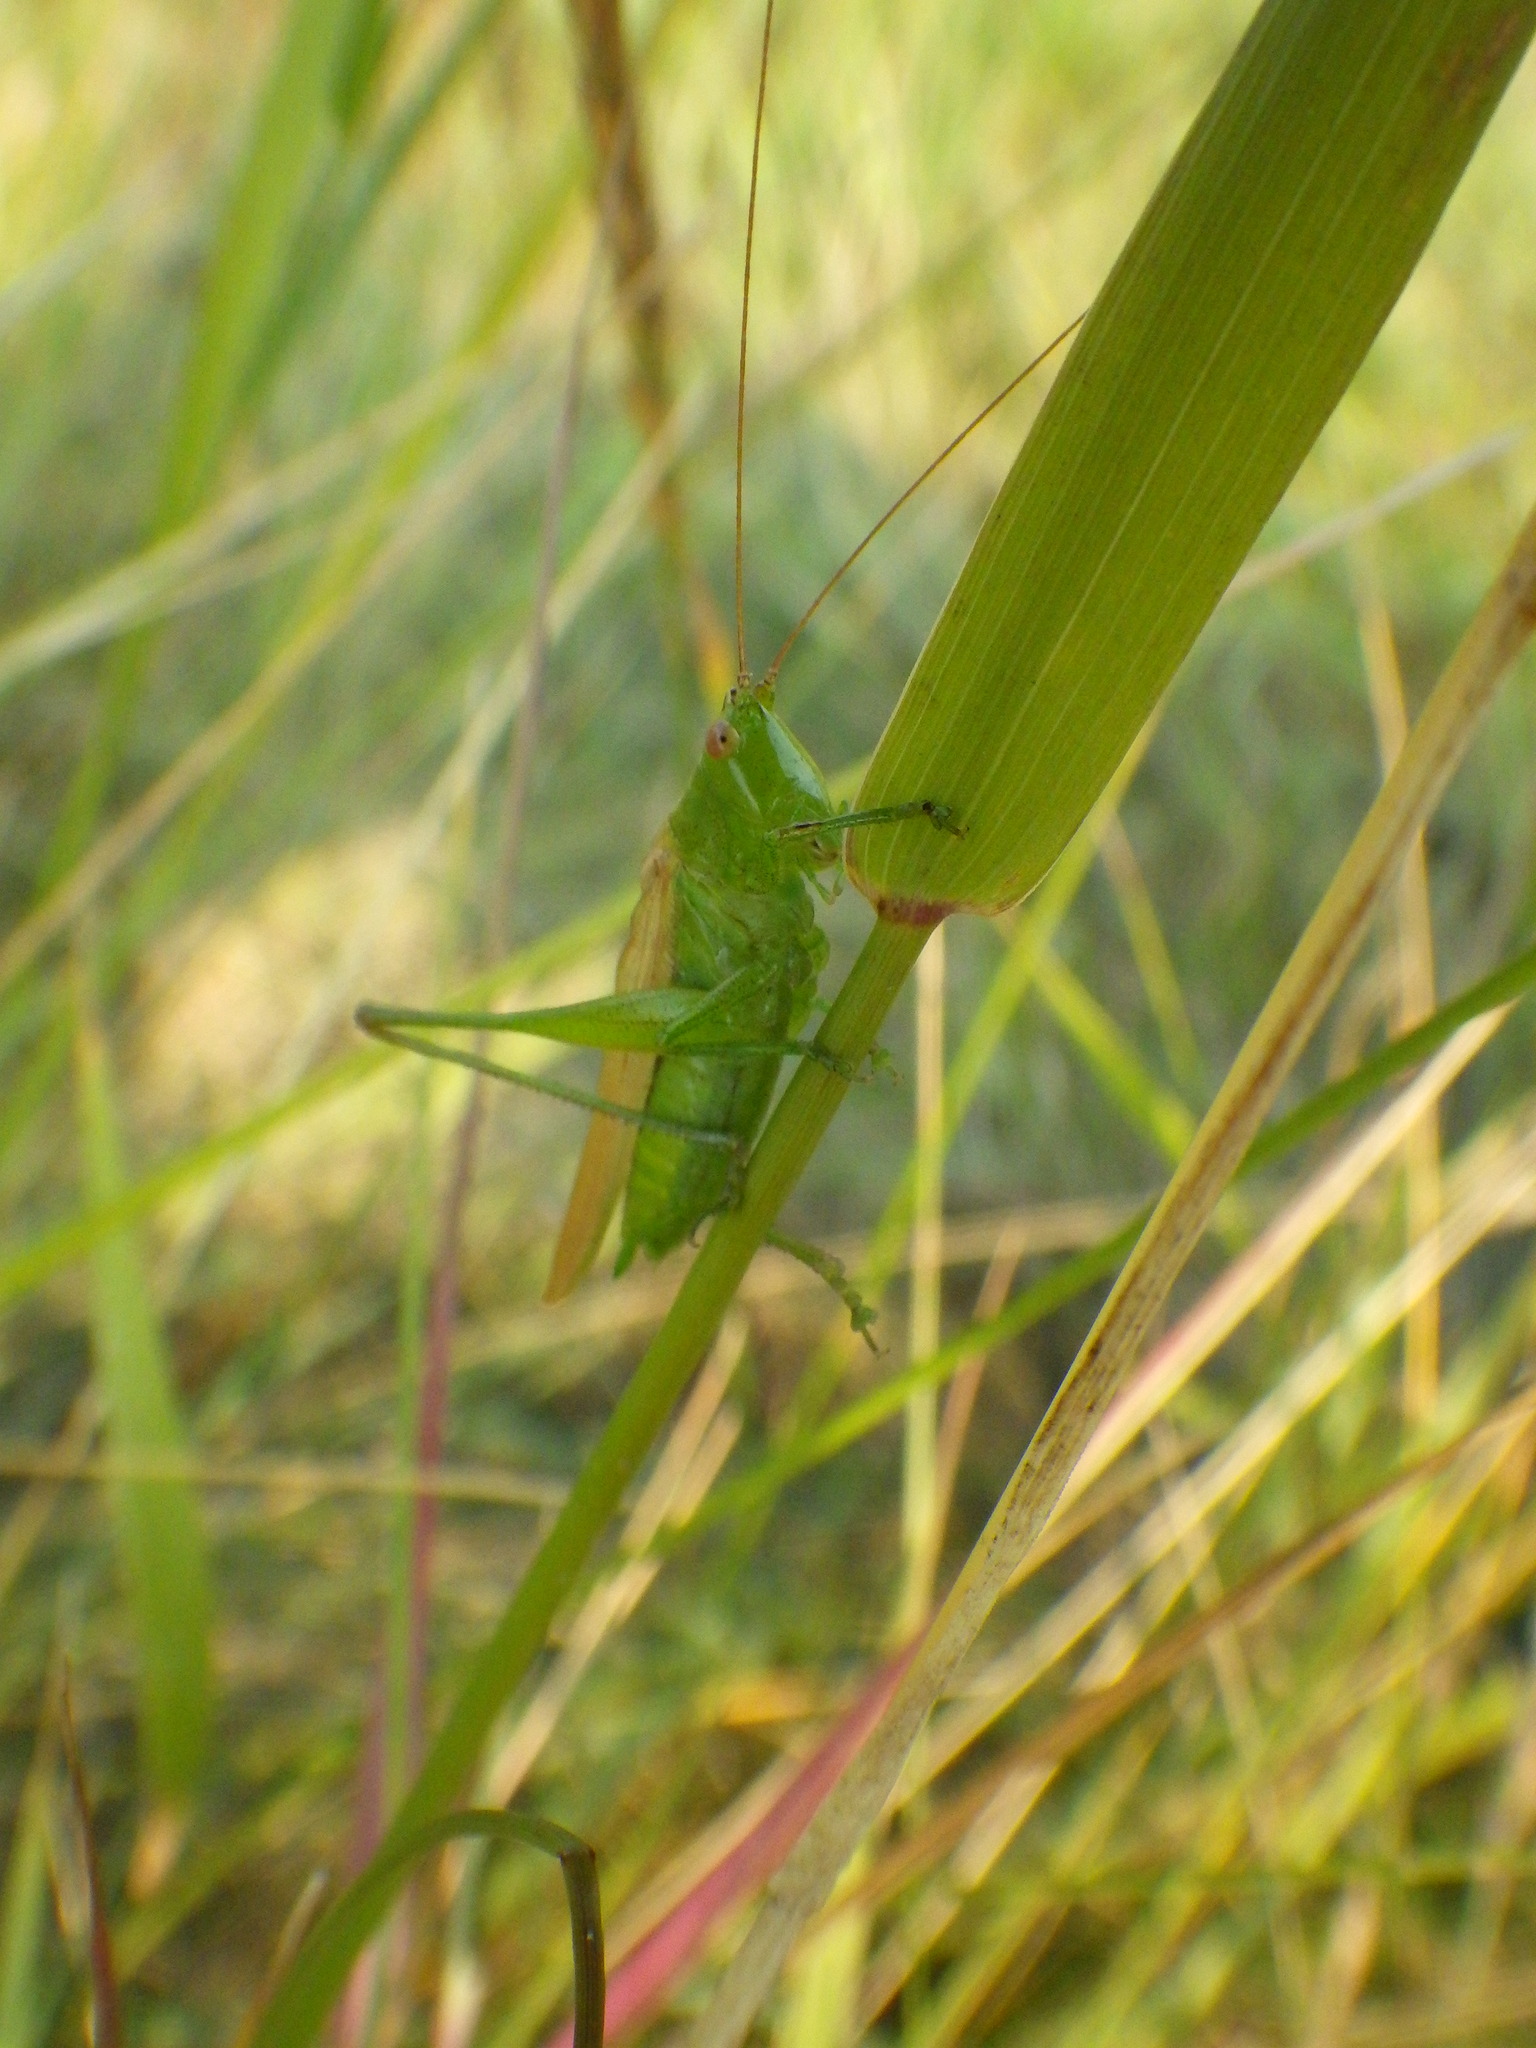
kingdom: Animalia
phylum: Arthropoda
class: Insecta
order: Orthoptera
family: Tettigoniidae
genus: Conocephalus
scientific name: Conocephalus fasciatus
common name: Slender meadow katydid
